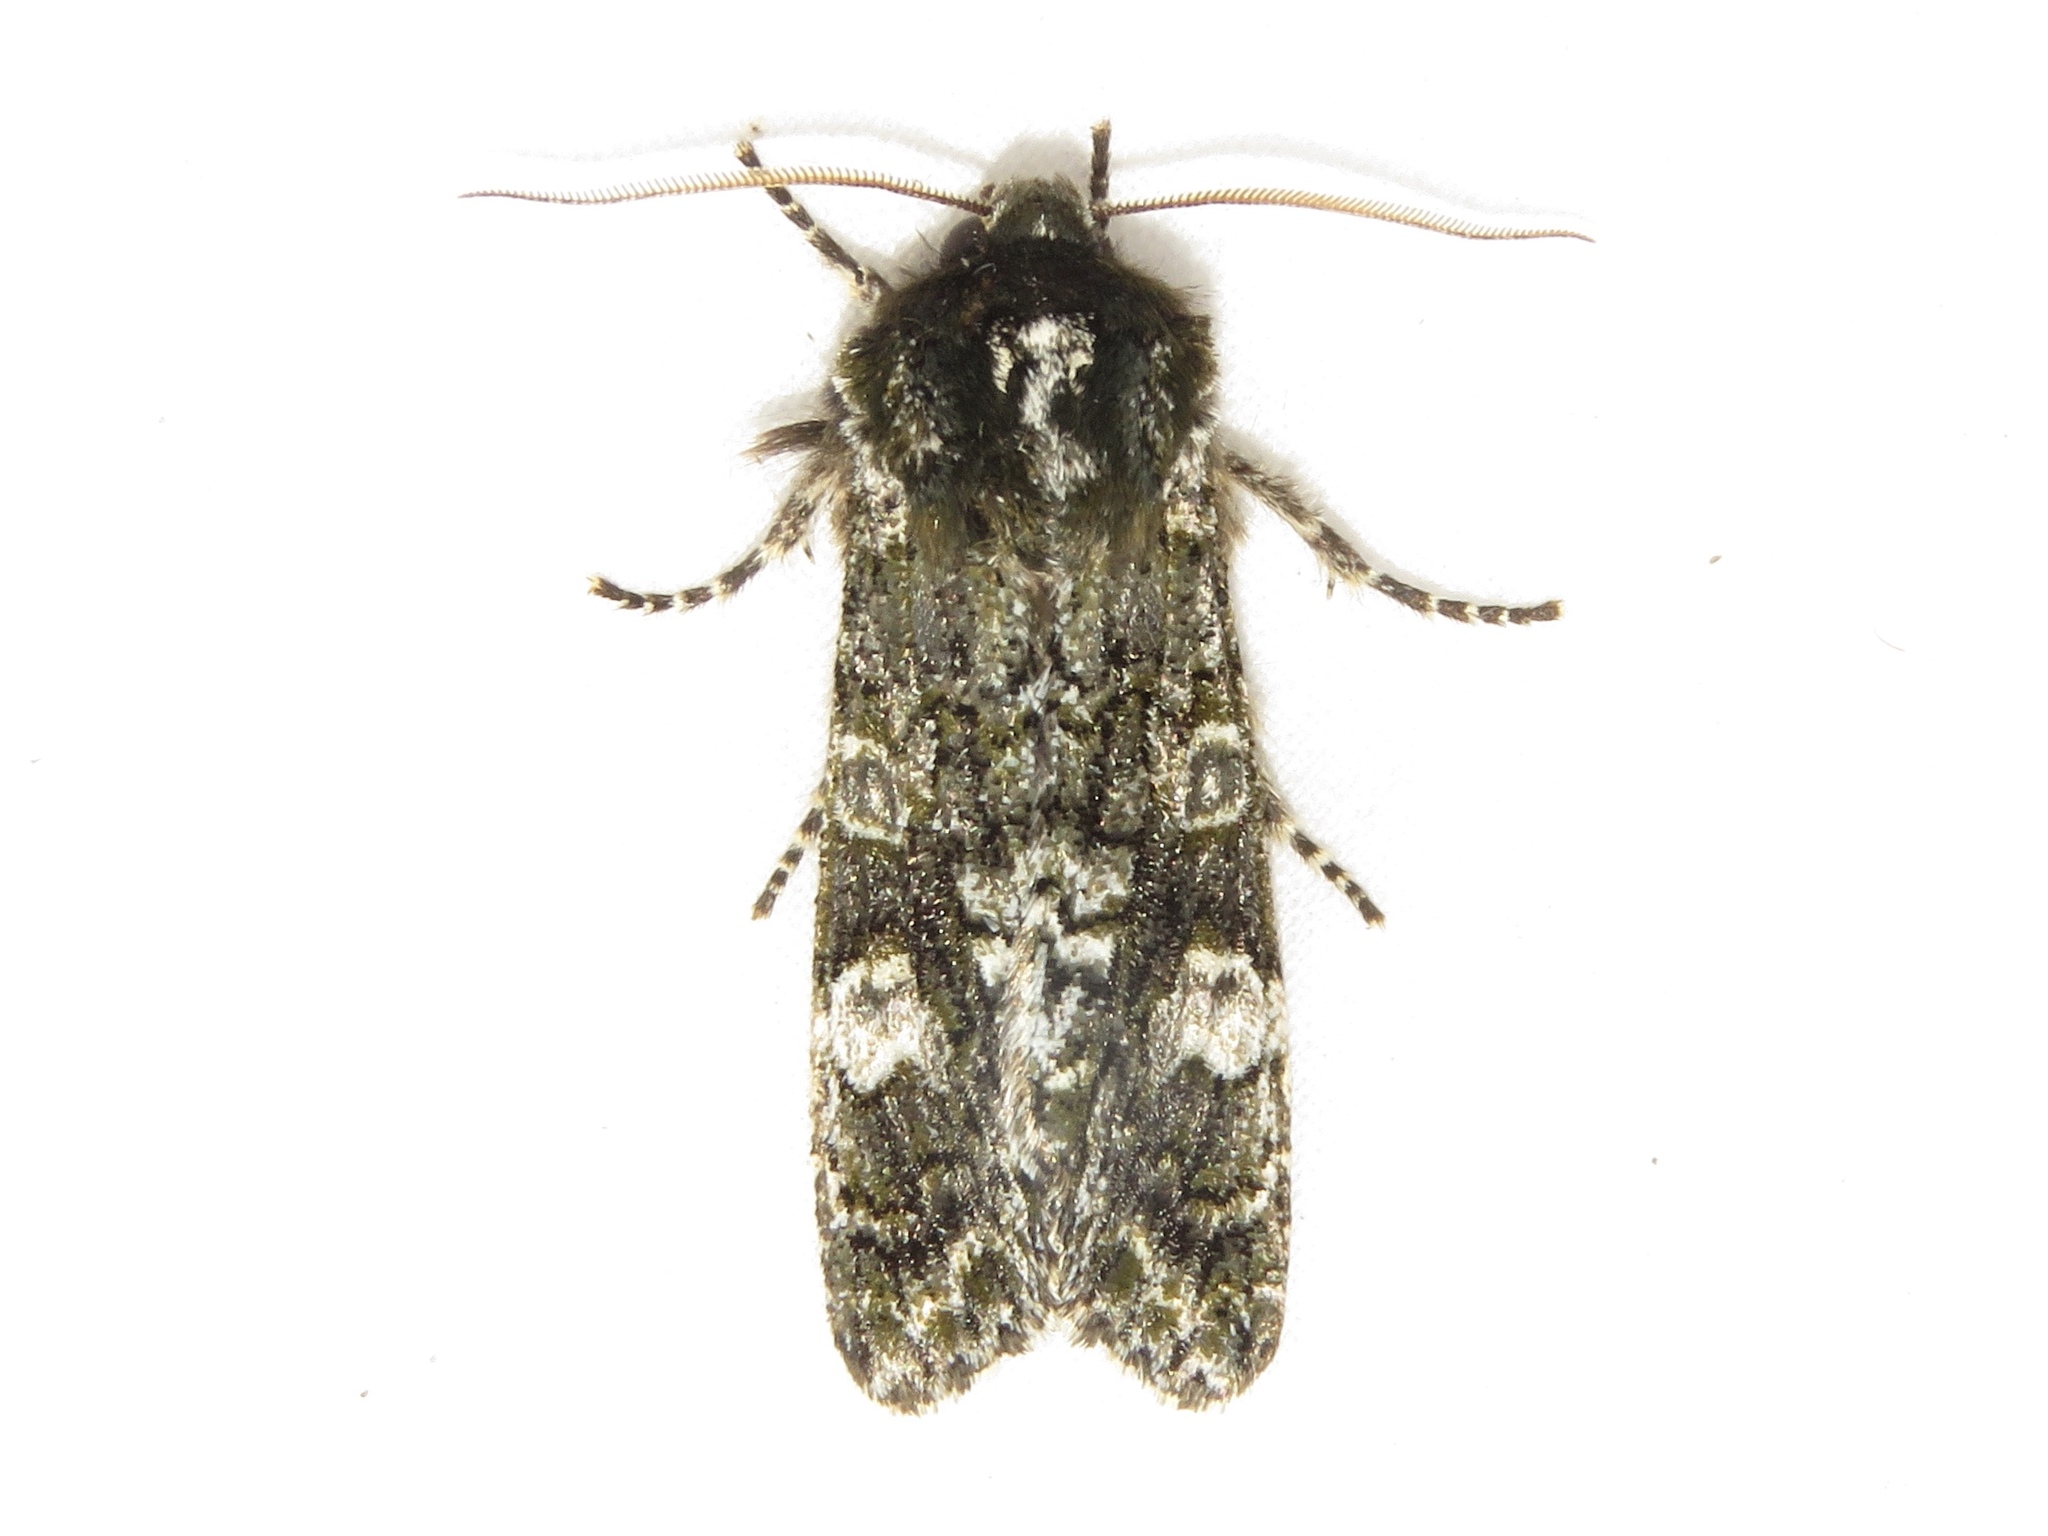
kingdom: Animalia
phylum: Arthropoda
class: Insecta
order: Lepidoptera
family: Noctuidae
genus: Psaphida
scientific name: Psaphida grotei
